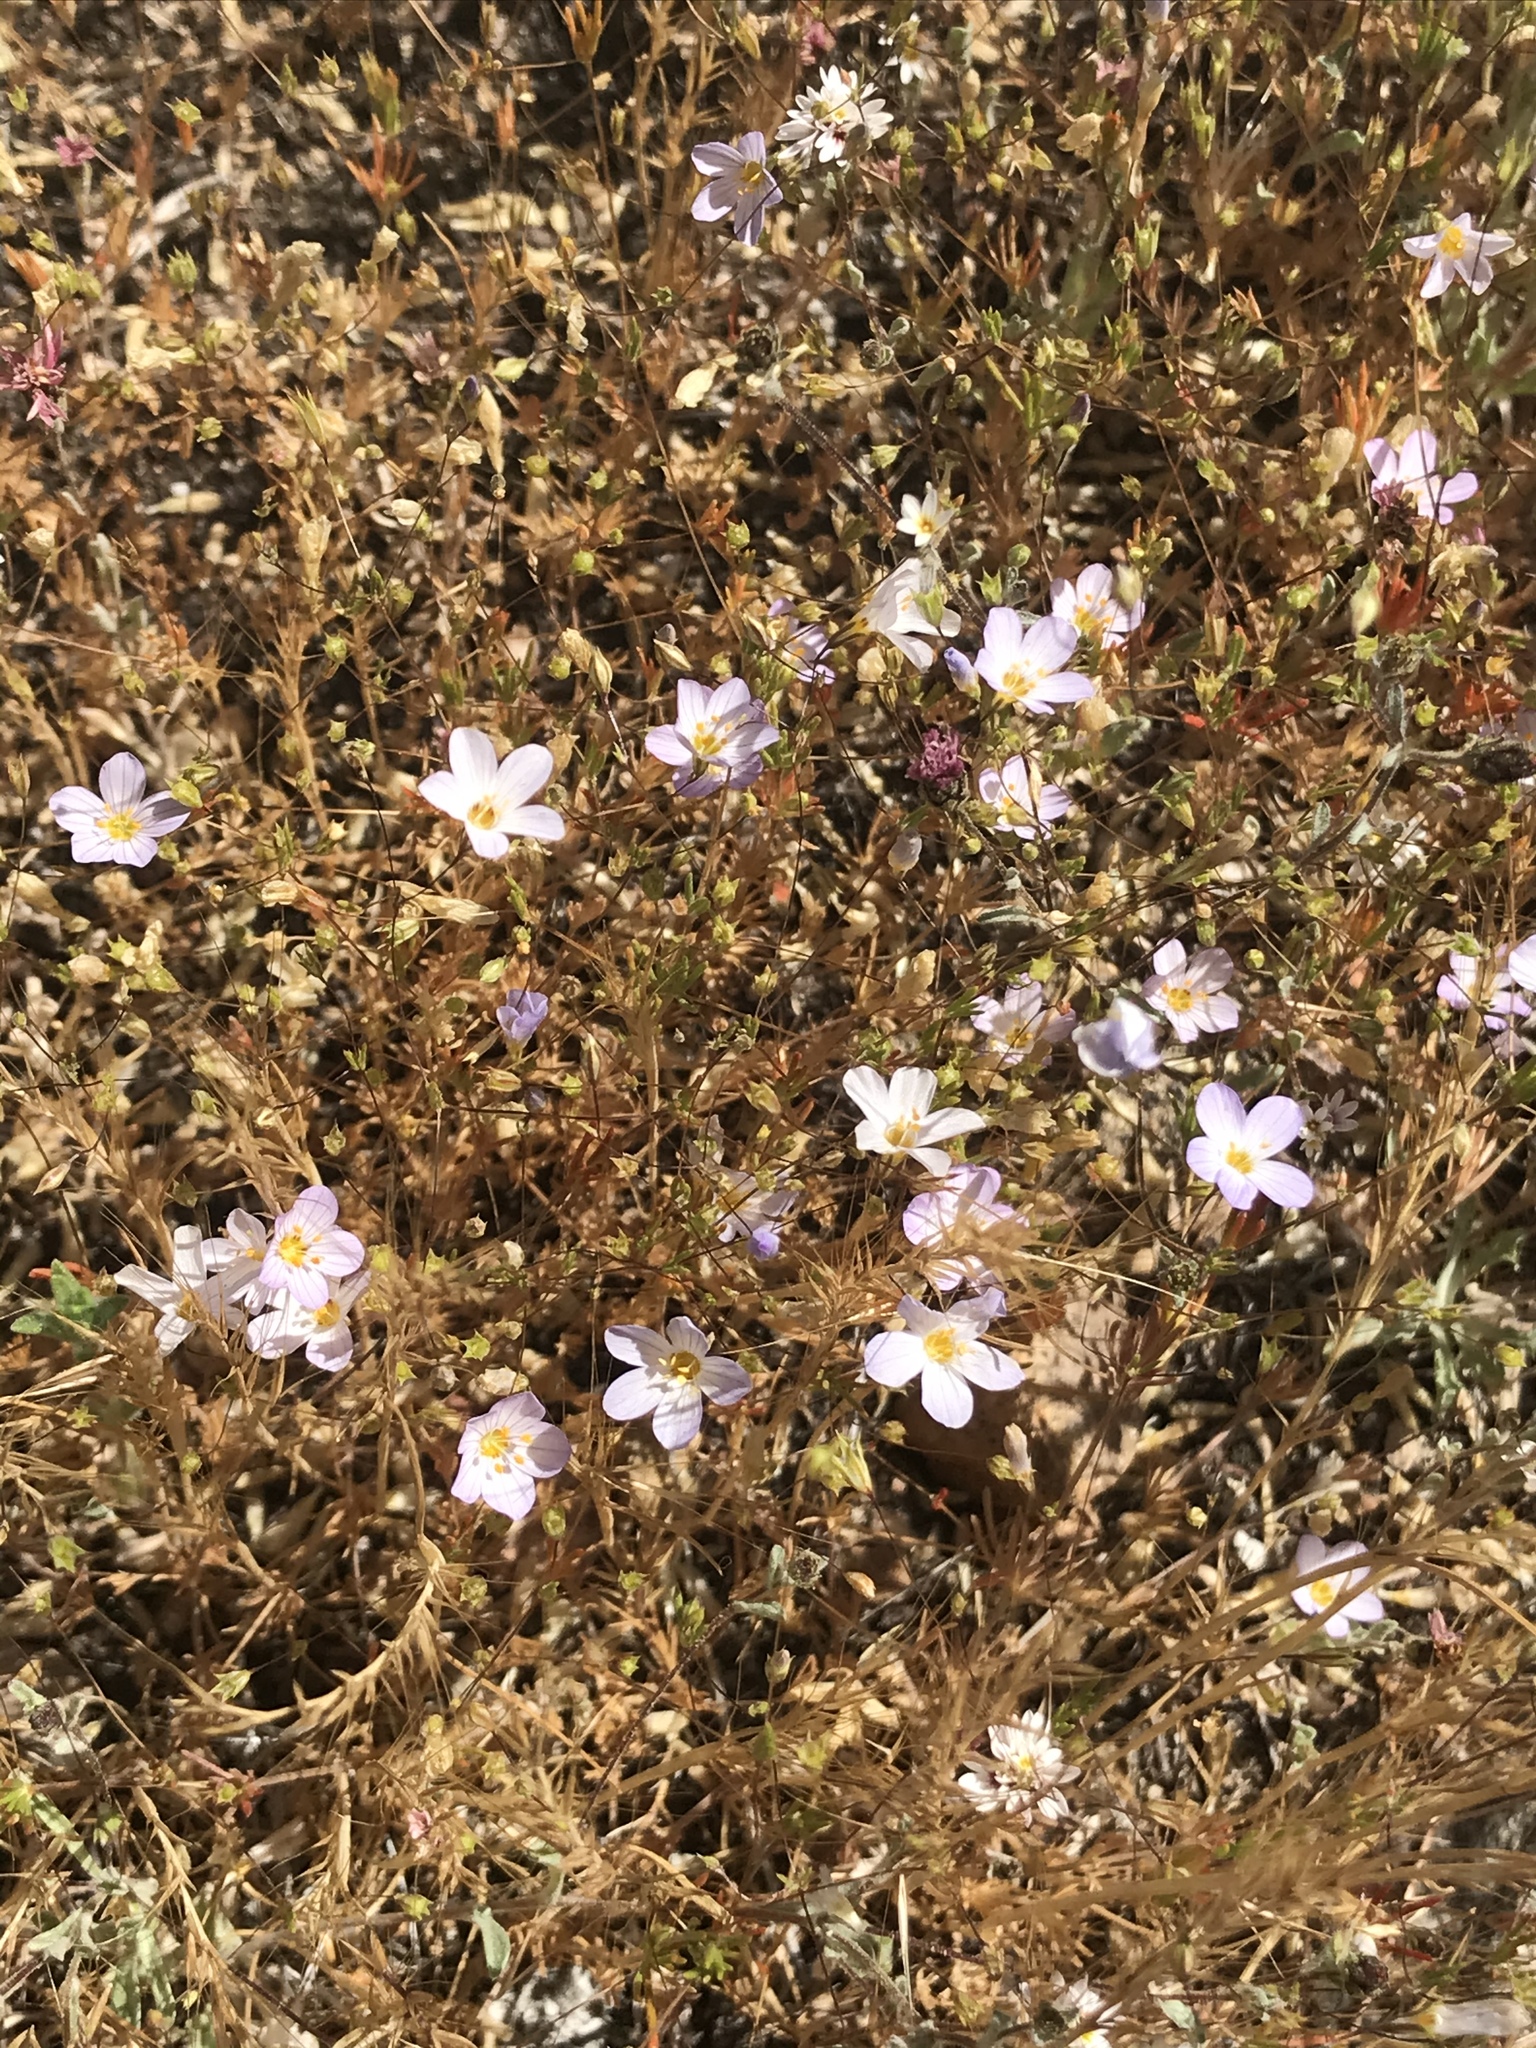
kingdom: Plantae
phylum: Tracheophyta
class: Magnoliopsida
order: Ericales
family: Polemoniaceae
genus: Leptosiphon
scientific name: Leptosiphon liniflorus
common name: Narrowflower flaxflower
